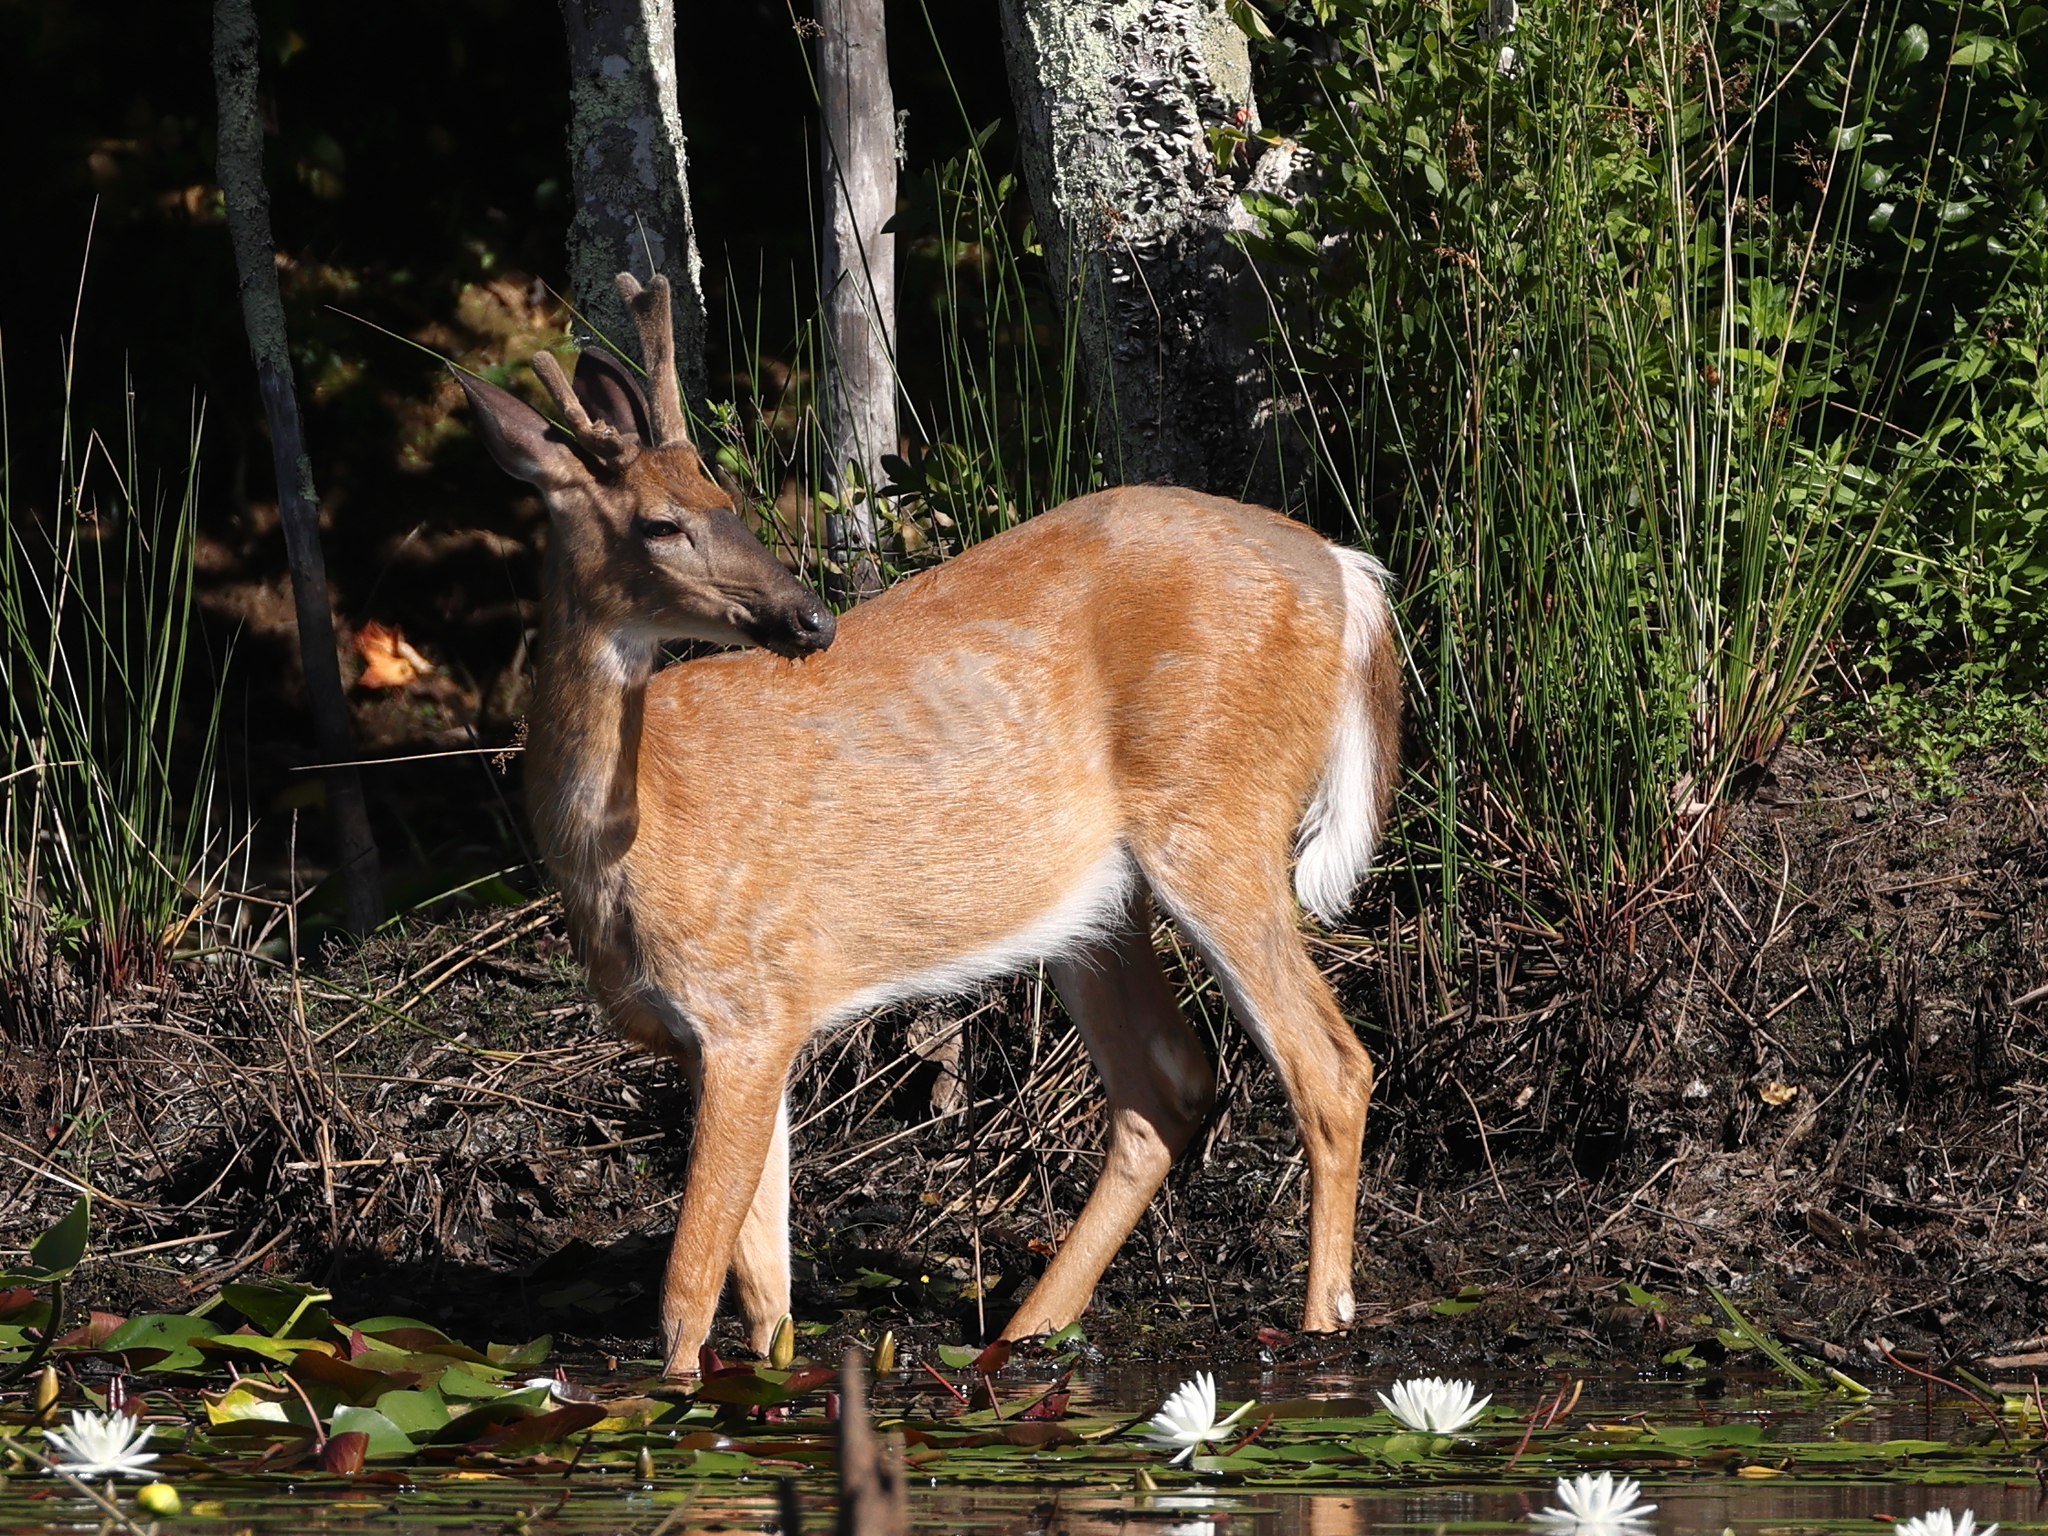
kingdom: Animalia
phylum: Chordata
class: Mammalia
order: Artiodactyla
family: Cervidae
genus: Odocoileus
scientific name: Odocoileus virginianus
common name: White-tailed deer
